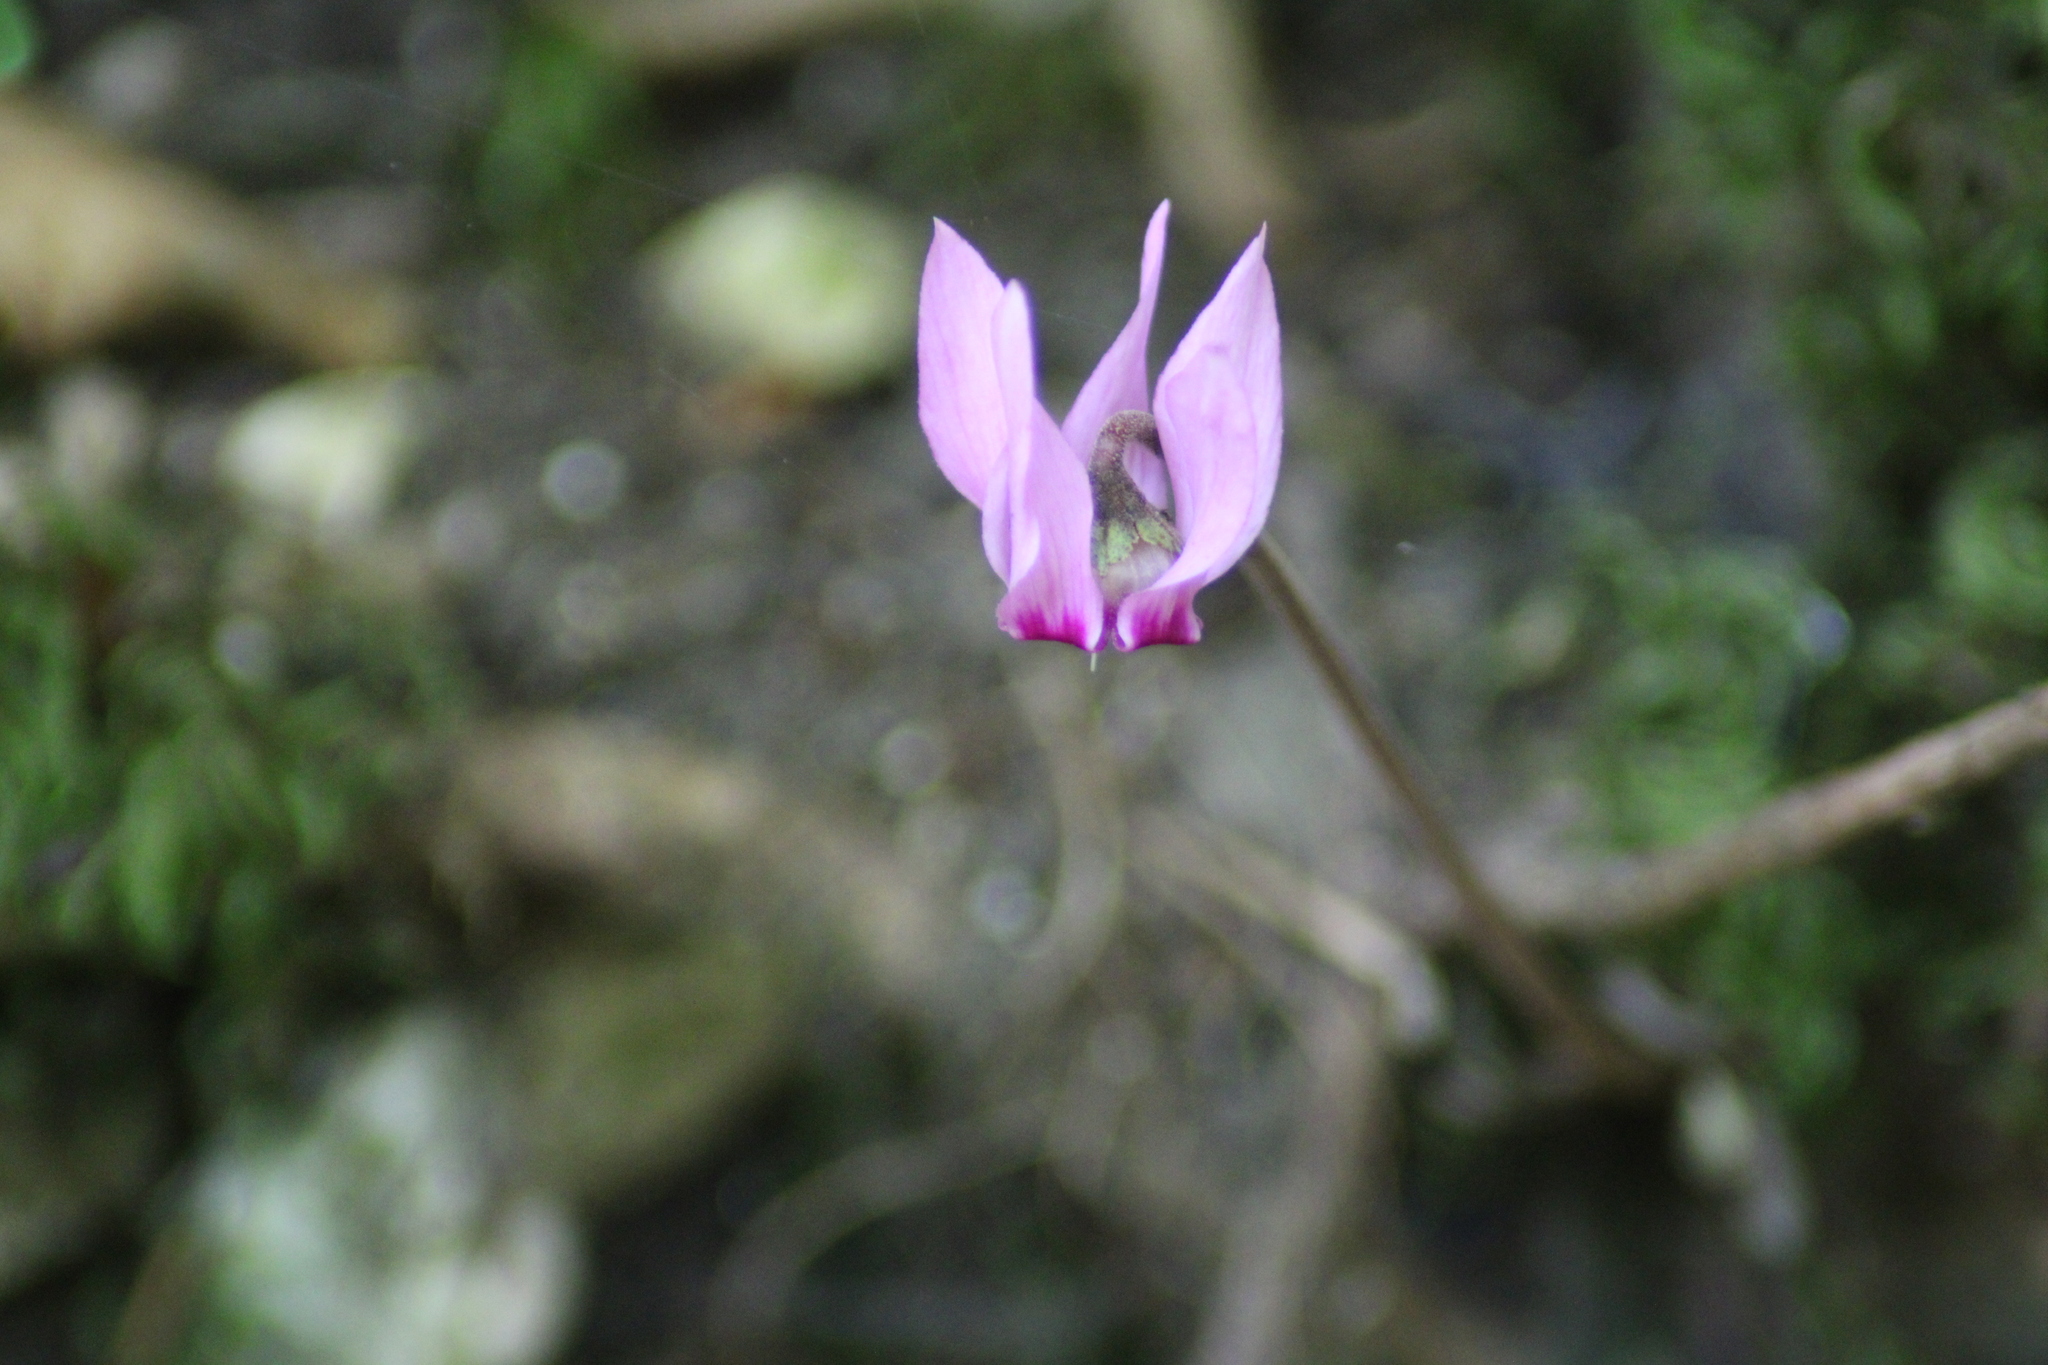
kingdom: Plantae
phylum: Tracheophyta
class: Magnoliopsida
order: Ericales
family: Primulaceae
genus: Cyclamen
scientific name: Cyclamen purpurascens
